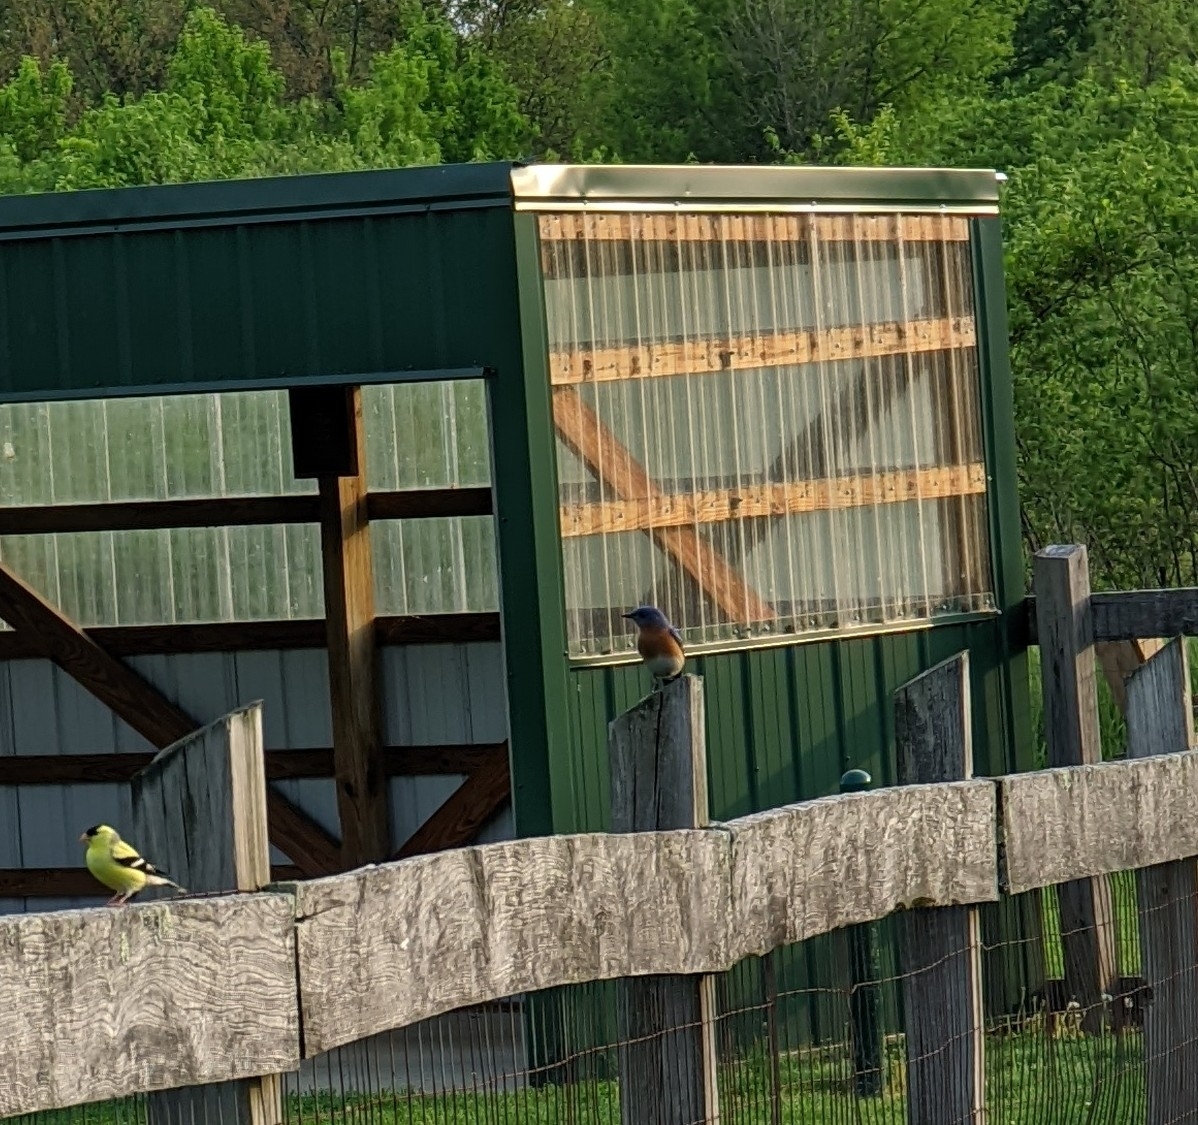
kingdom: Animalia
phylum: Chordata
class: Aves
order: Passeriformes
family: Turdidae
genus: Sialia
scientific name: Sialia sialis
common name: Eastern bluebird
